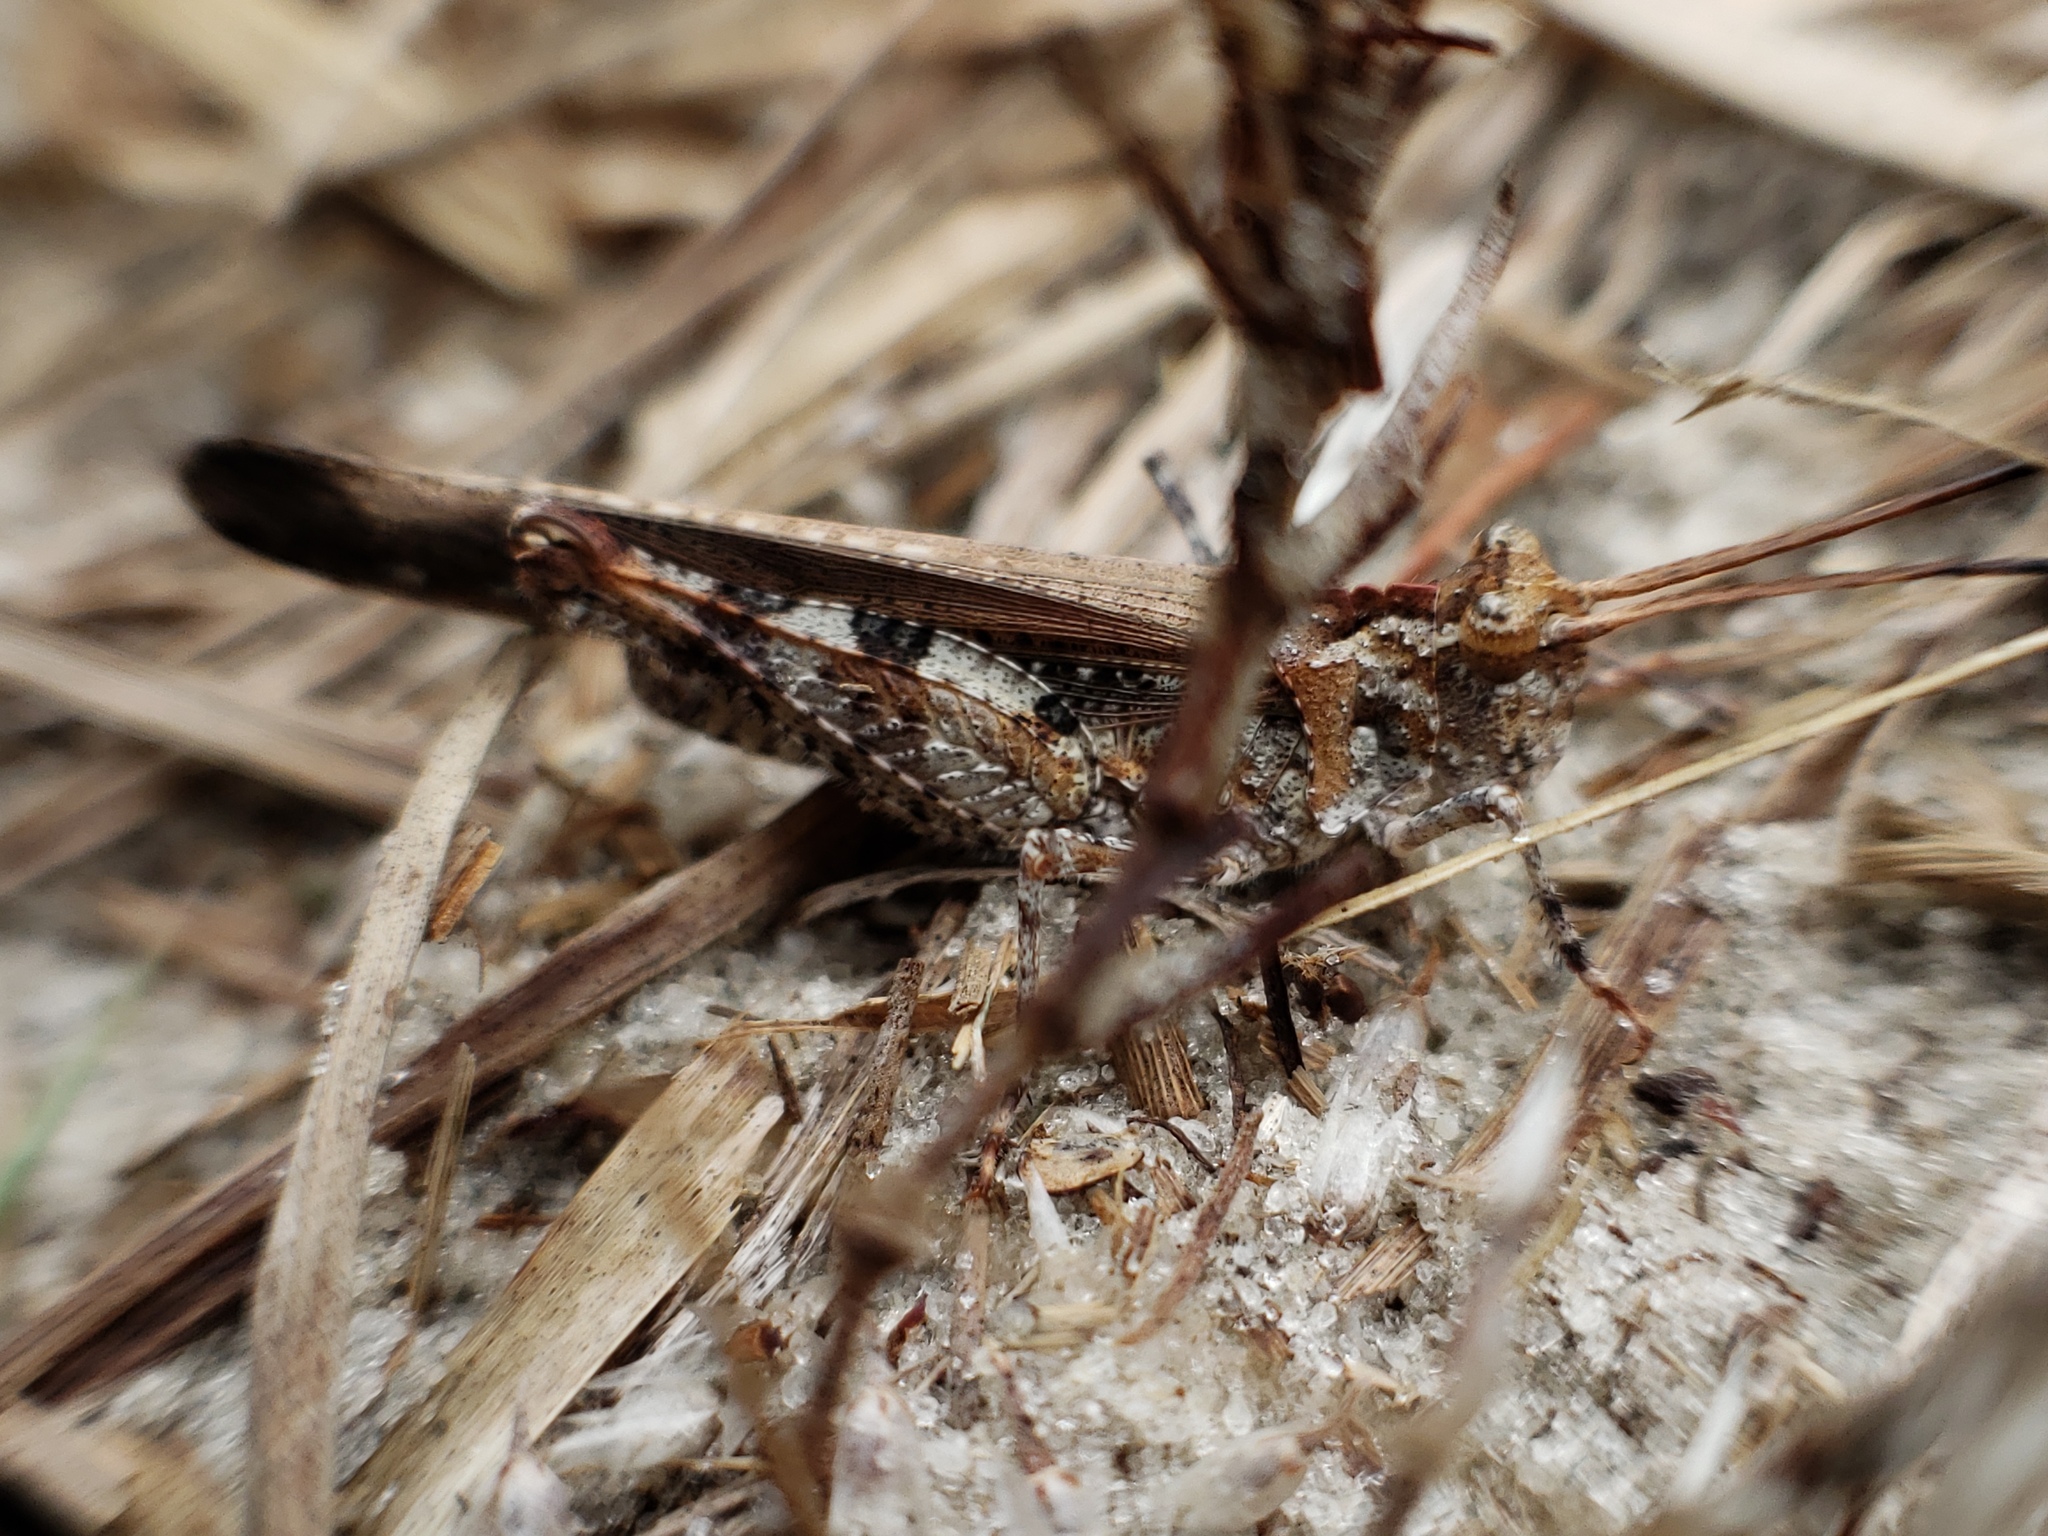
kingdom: Animalia
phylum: Arthropoda
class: Insecta
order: Orthoptera
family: Acrididae
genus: Psinidia
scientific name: Psinidia fenestralis
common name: Long-horned locust
